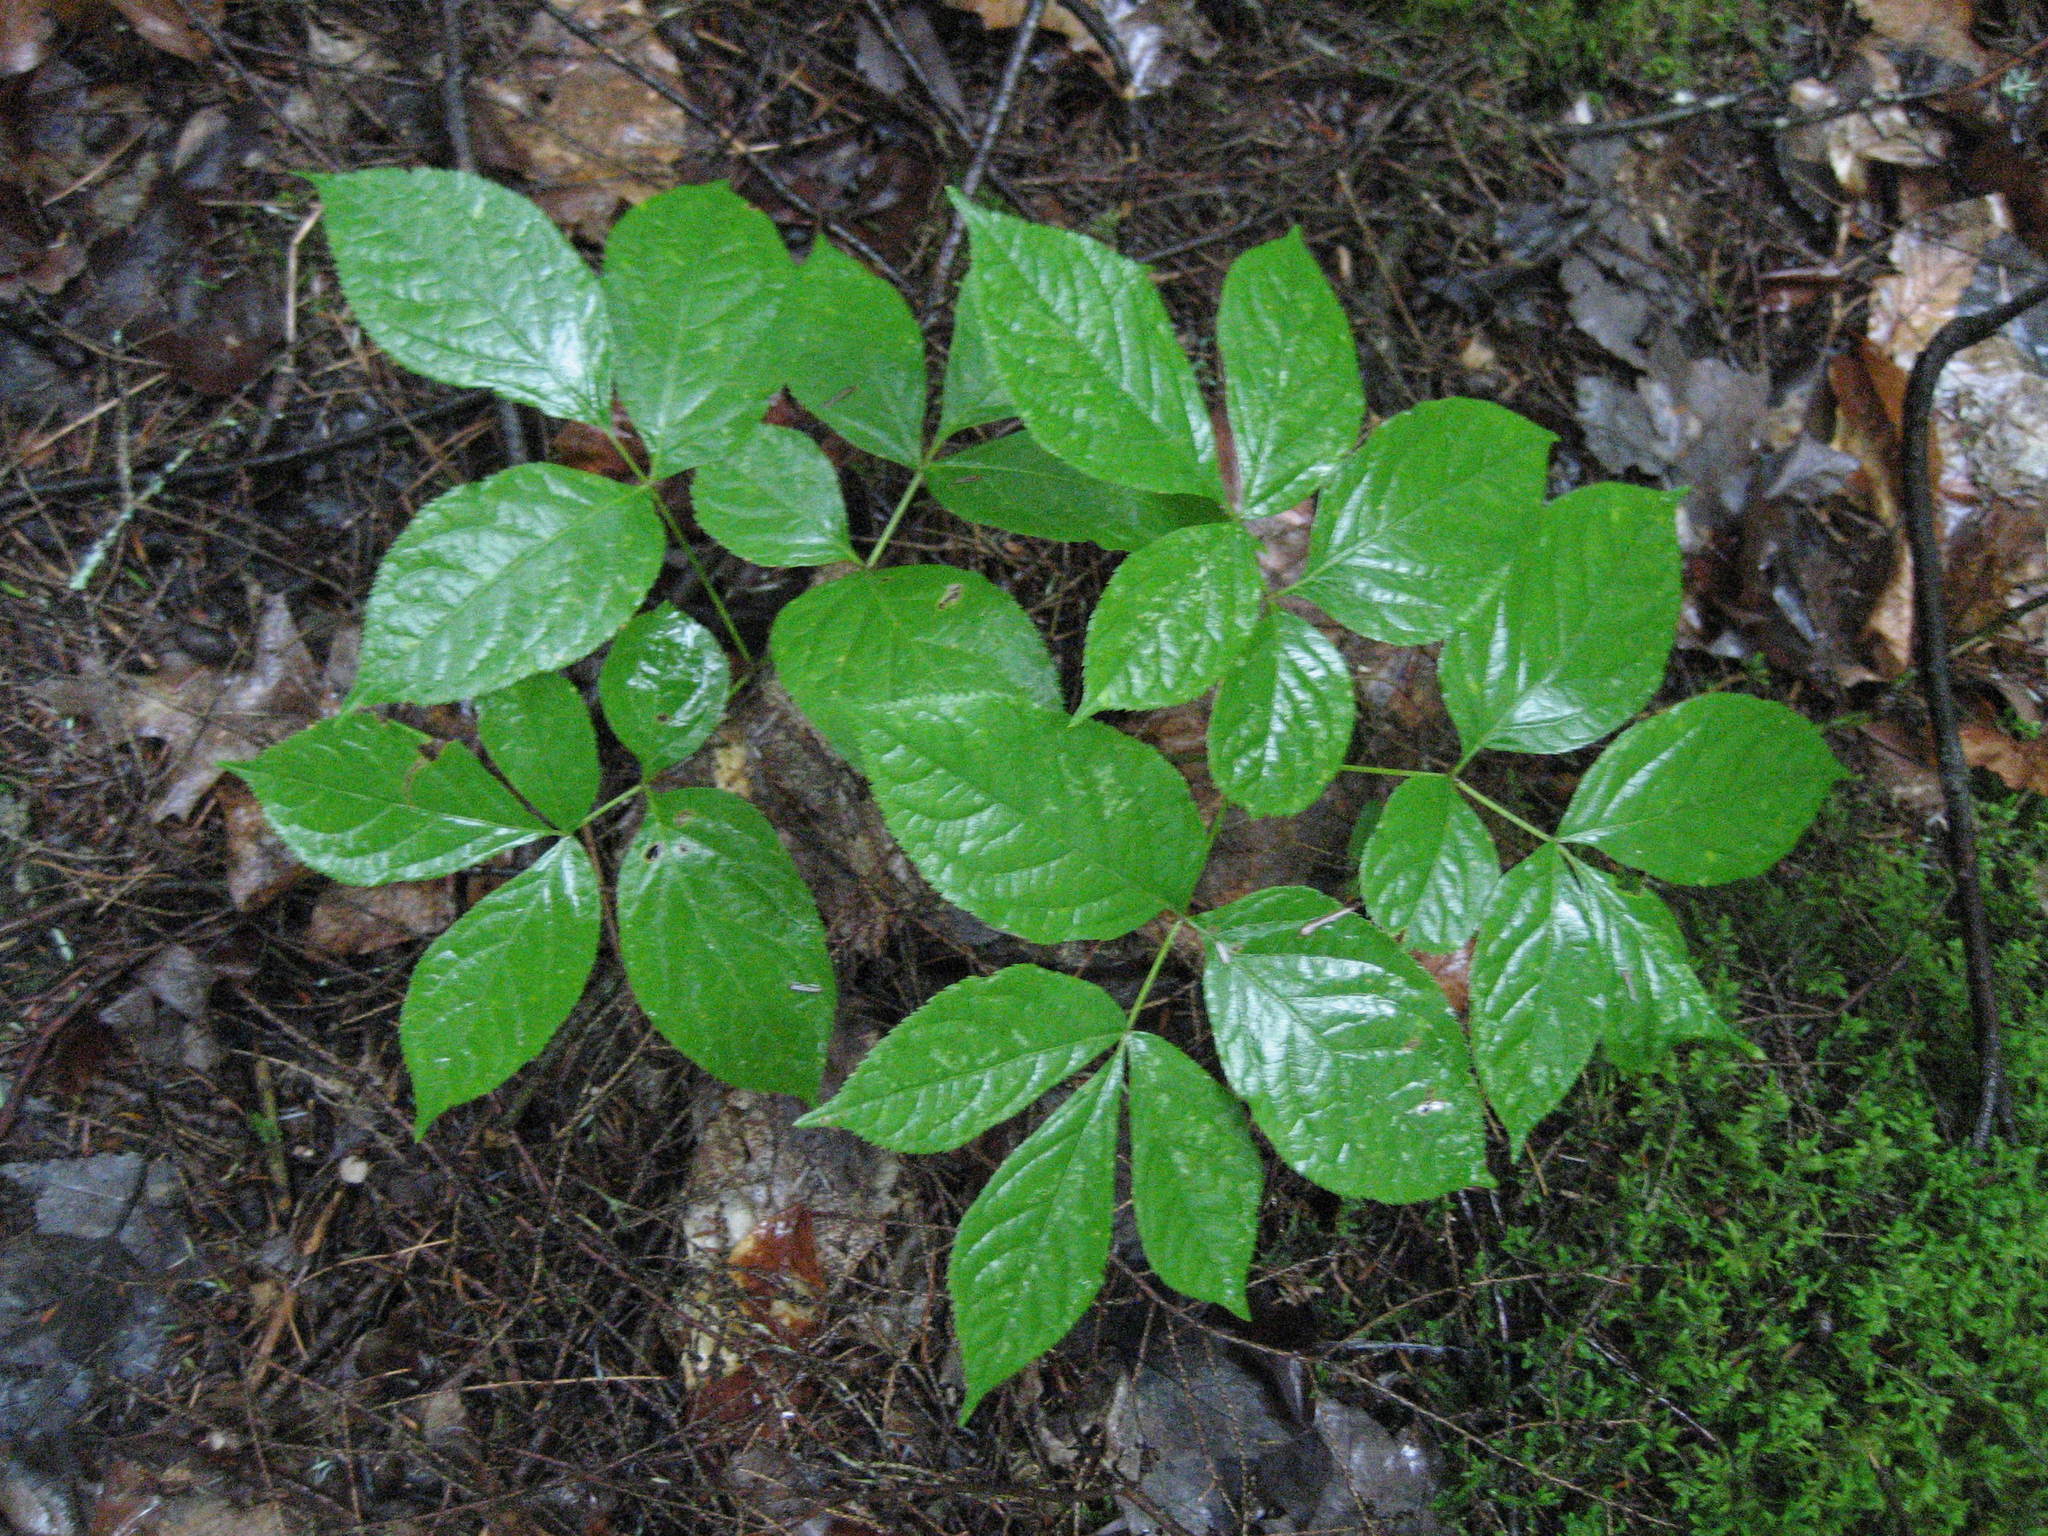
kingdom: Plantae
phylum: Tracheophyta
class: Magnoliopsida
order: Apiales
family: Araliaceae
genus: Aralia
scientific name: Aralia nudicaulis
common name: Wild sarsaparilla
